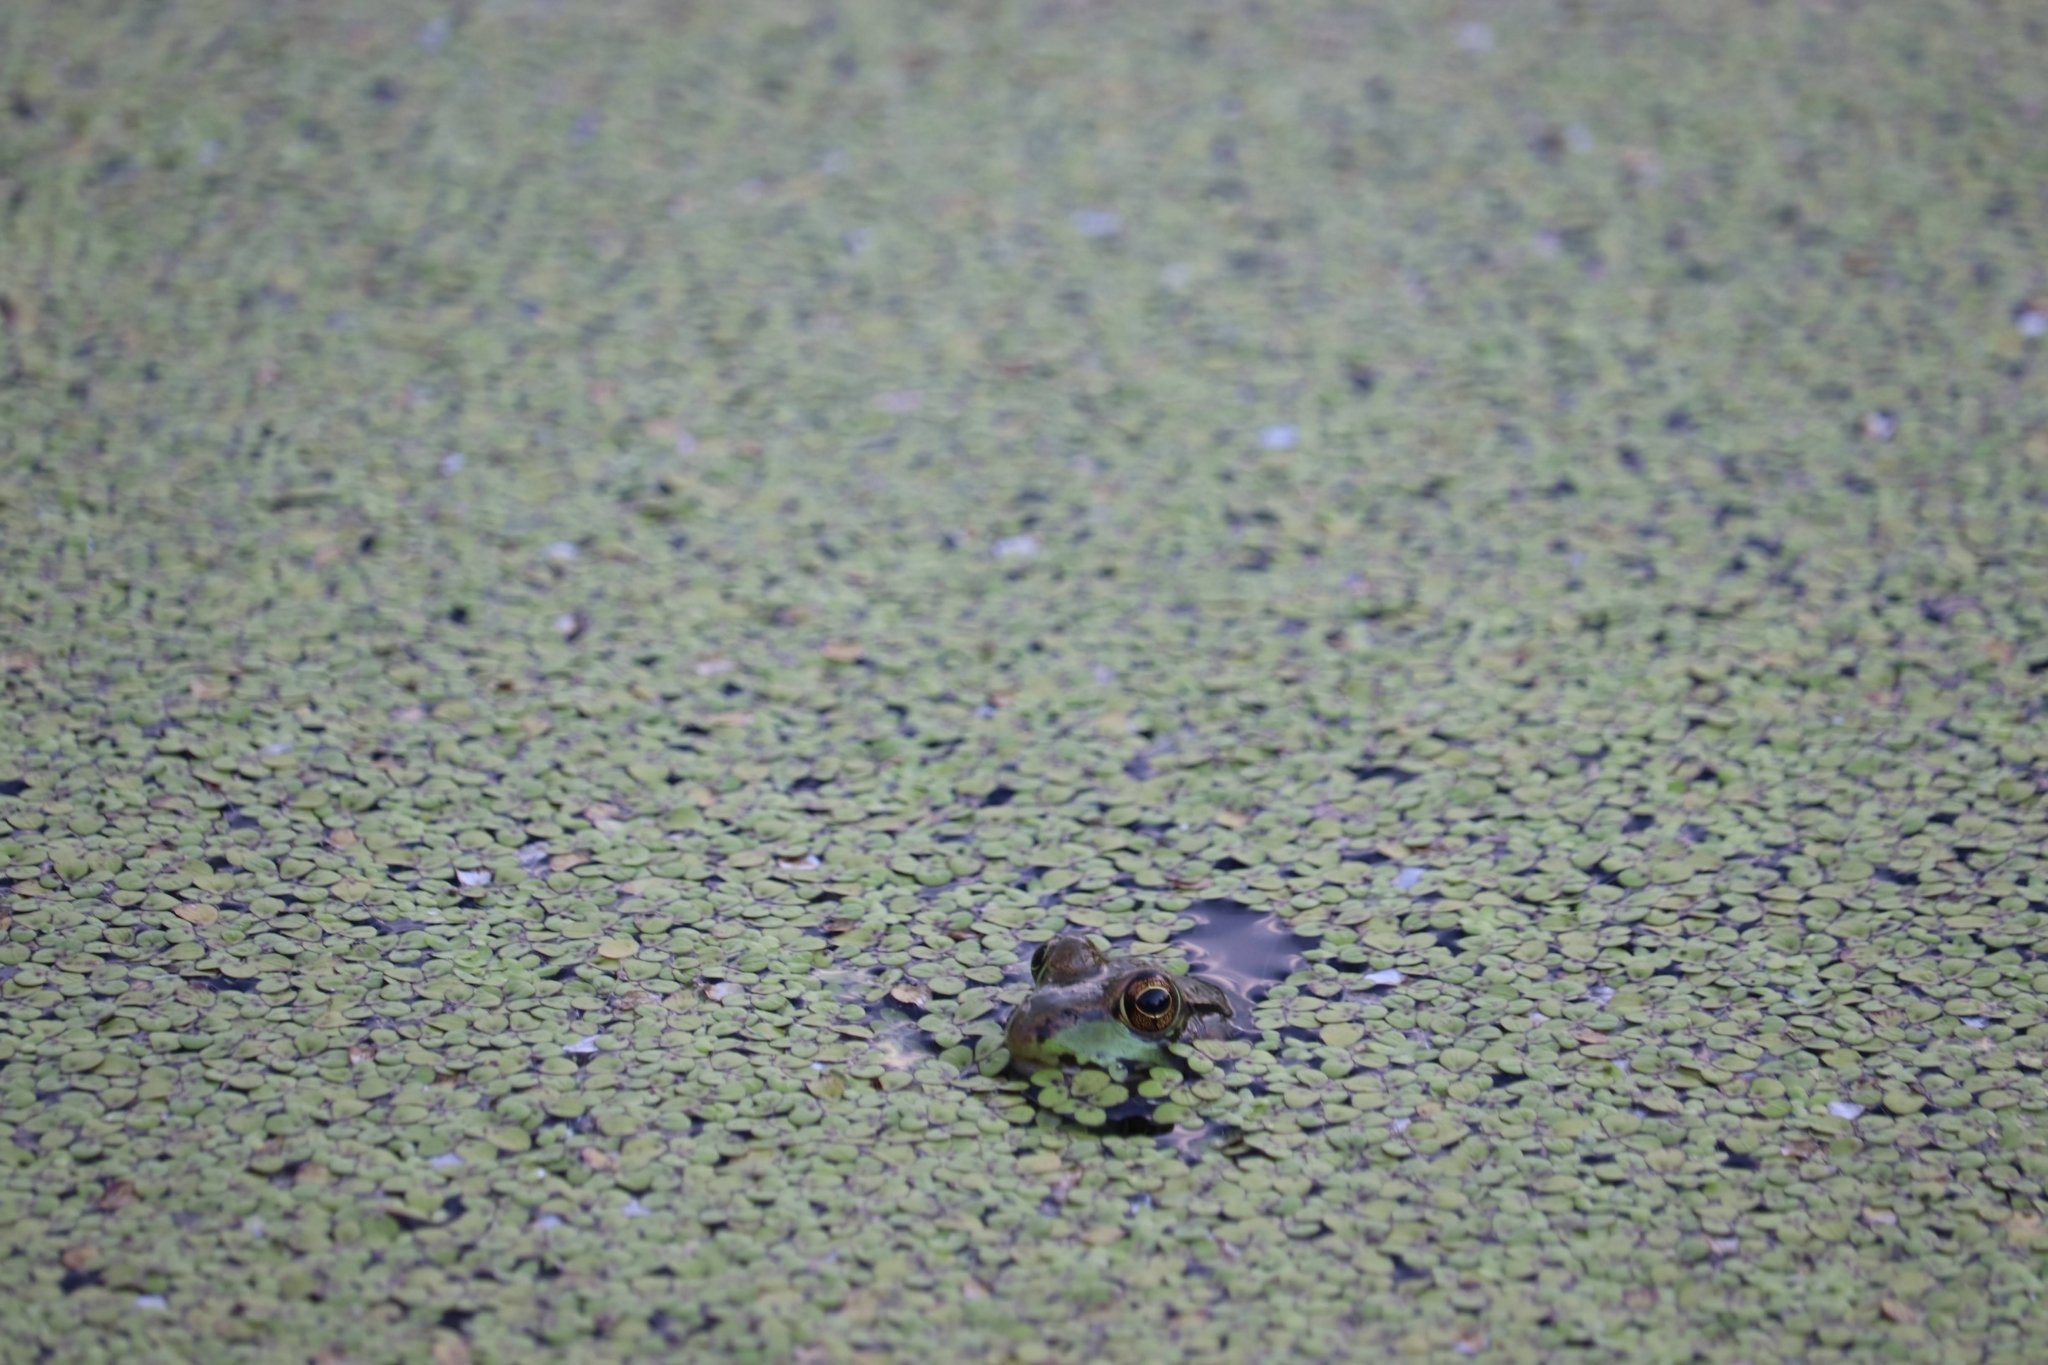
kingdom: Animalia
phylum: Chordata
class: Amphibia
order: Anura
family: Ranidae
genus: Lithobates
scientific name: Lithobates clamitans
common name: Green frog
